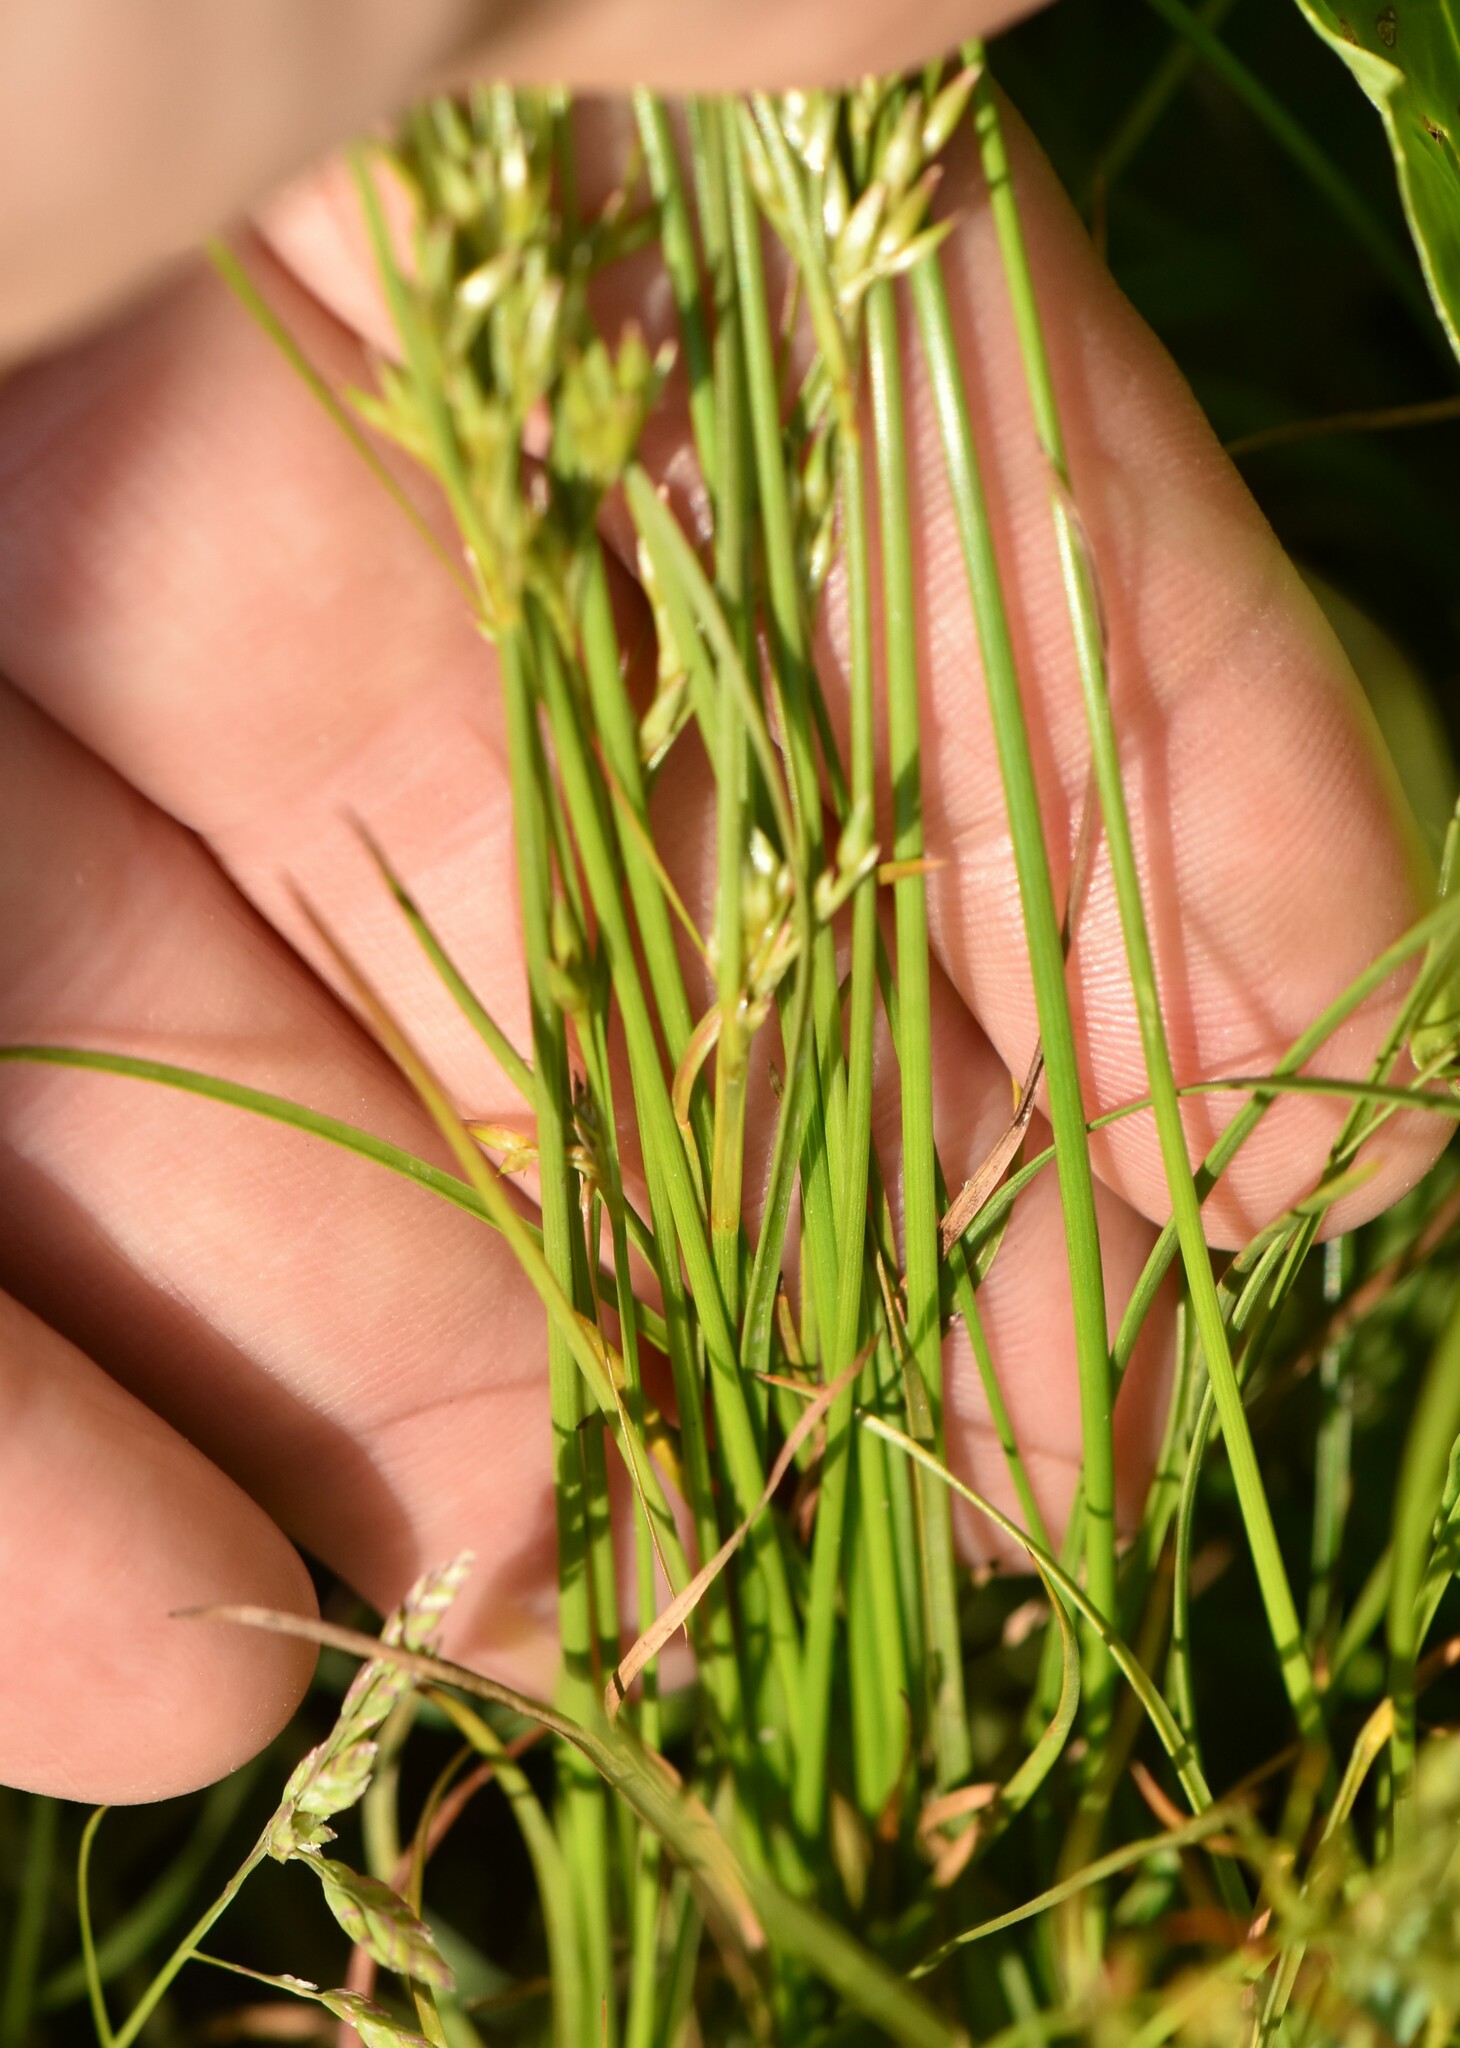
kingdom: Plantae
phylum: Tracheophyta
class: Liliopsida
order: Poales
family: Juncaceae
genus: Juncus
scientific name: Juncus tenuis
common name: Slender rush
